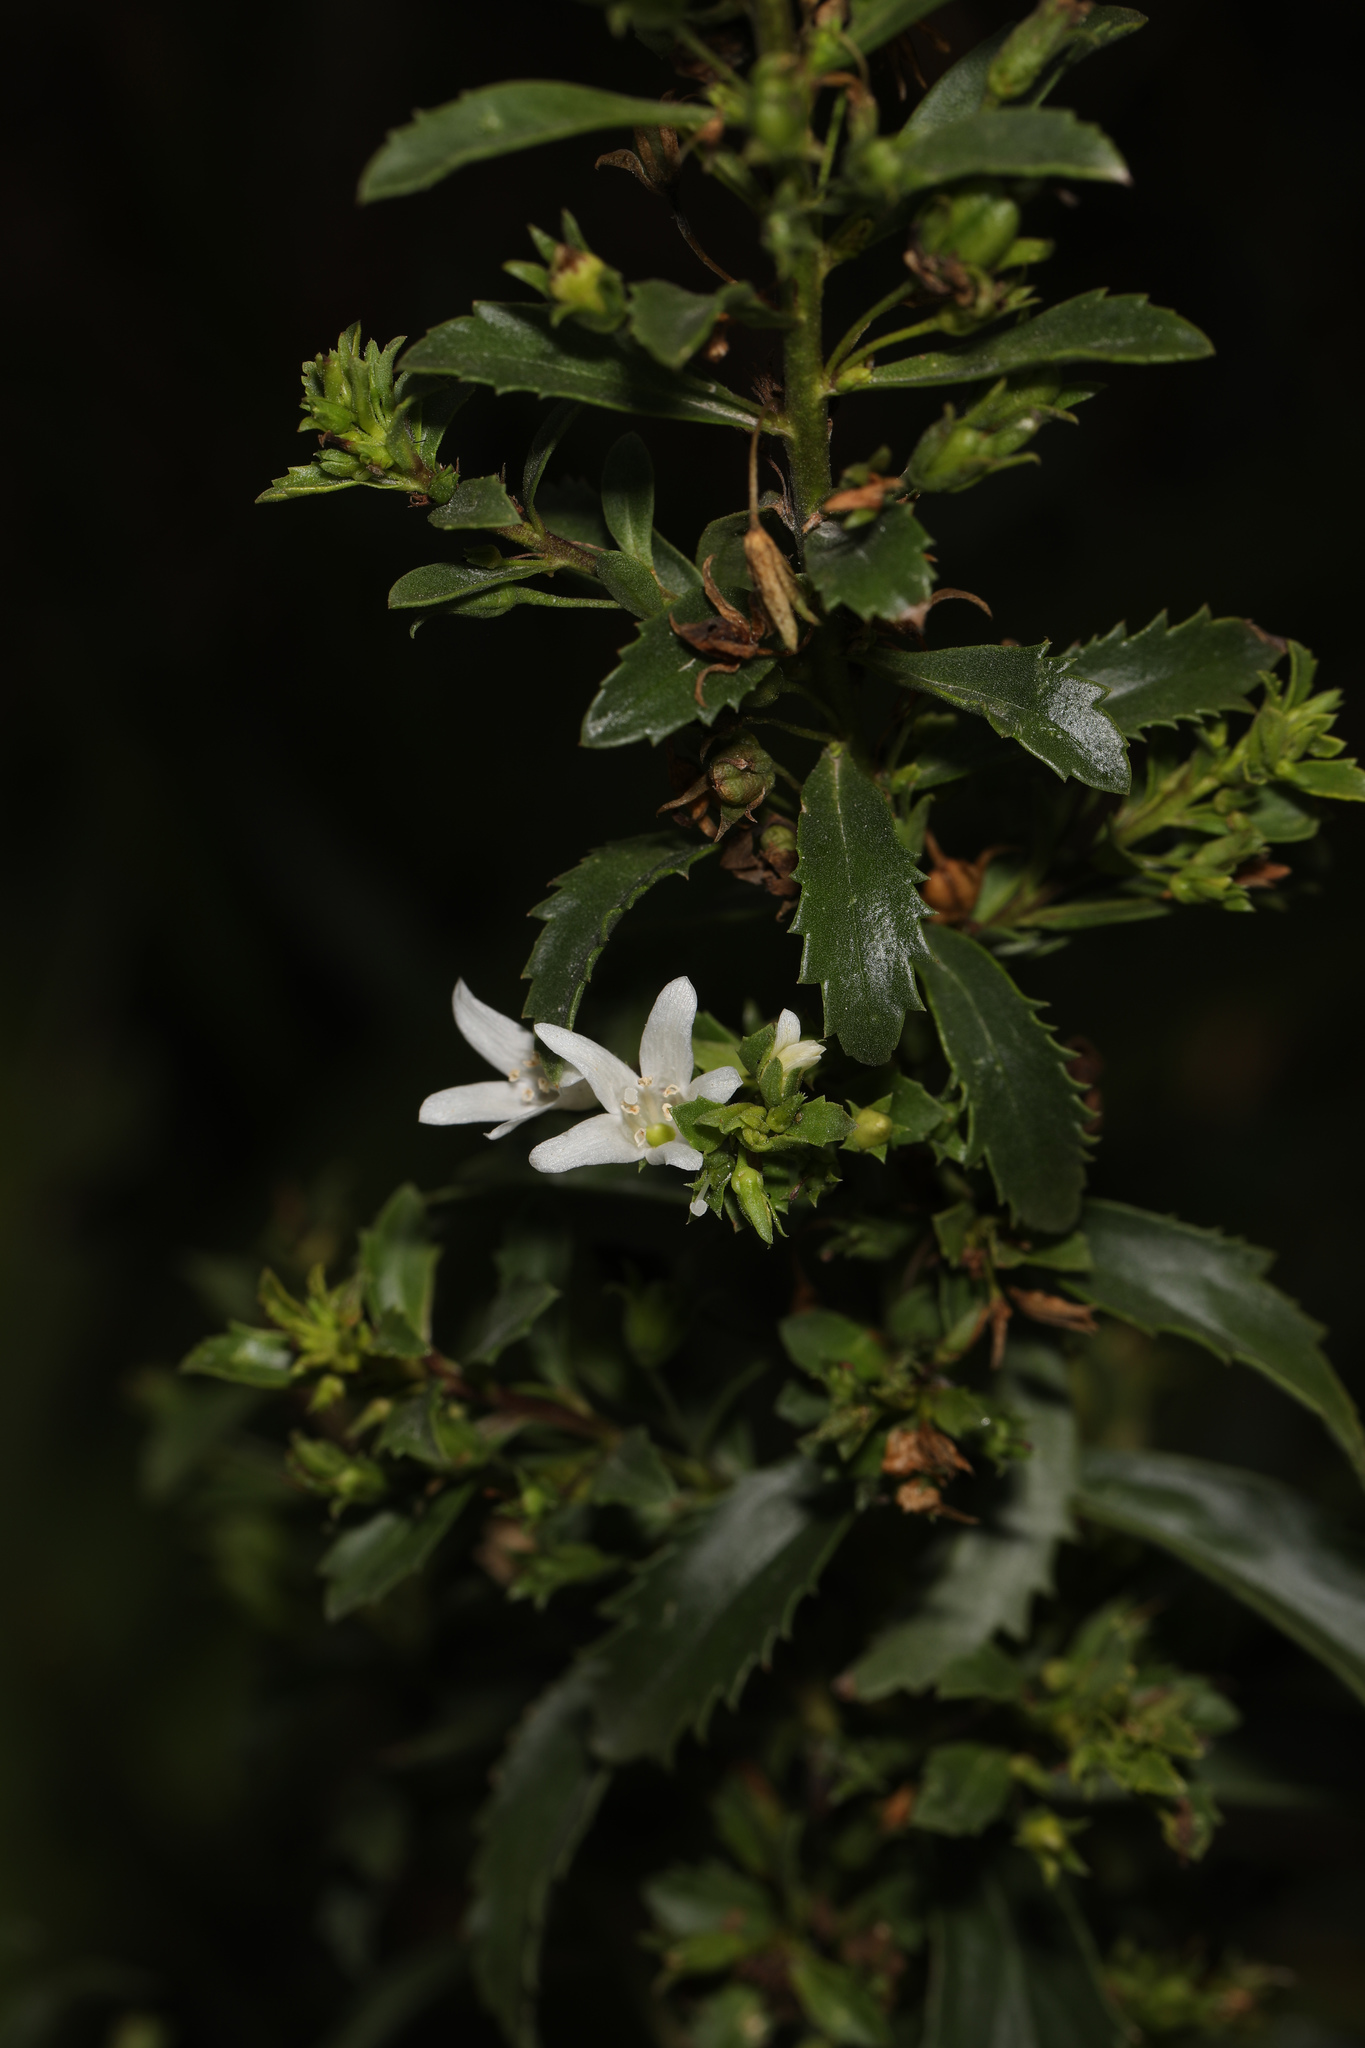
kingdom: Plantae
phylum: Tracheophyta
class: Magnoliopsida
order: Lamiales
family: Scrophulariaceae
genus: Capraria
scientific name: Capraria biflora
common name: Goatweed
